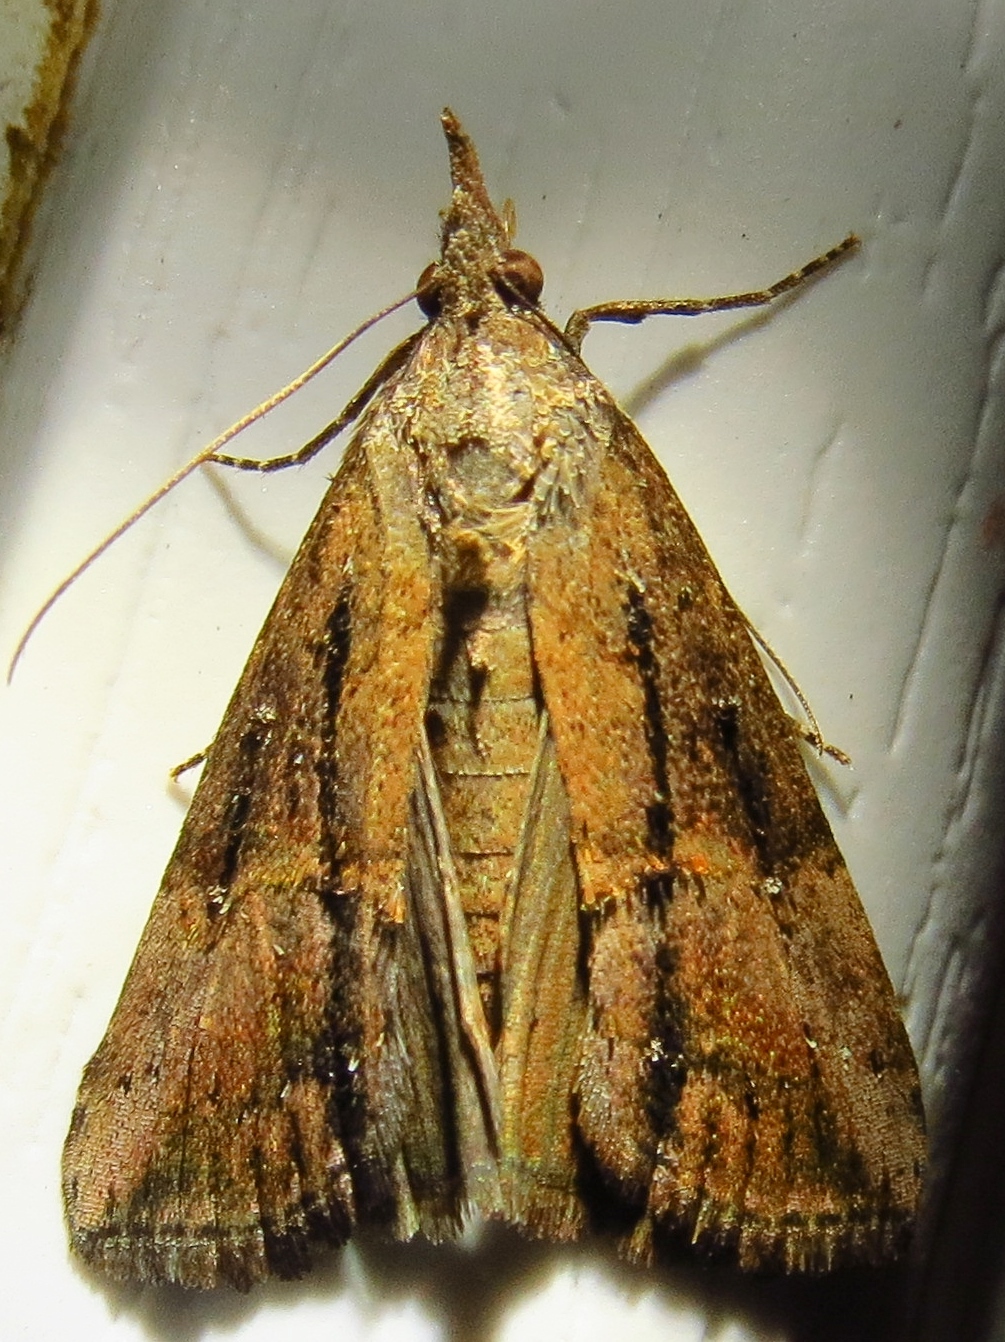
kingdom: Animalia
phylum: Arthropoda
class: Insecta
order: Lepidoptera
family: Erebidae
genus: Hypena
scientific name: Hypena scabra
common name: Green cloverworm
